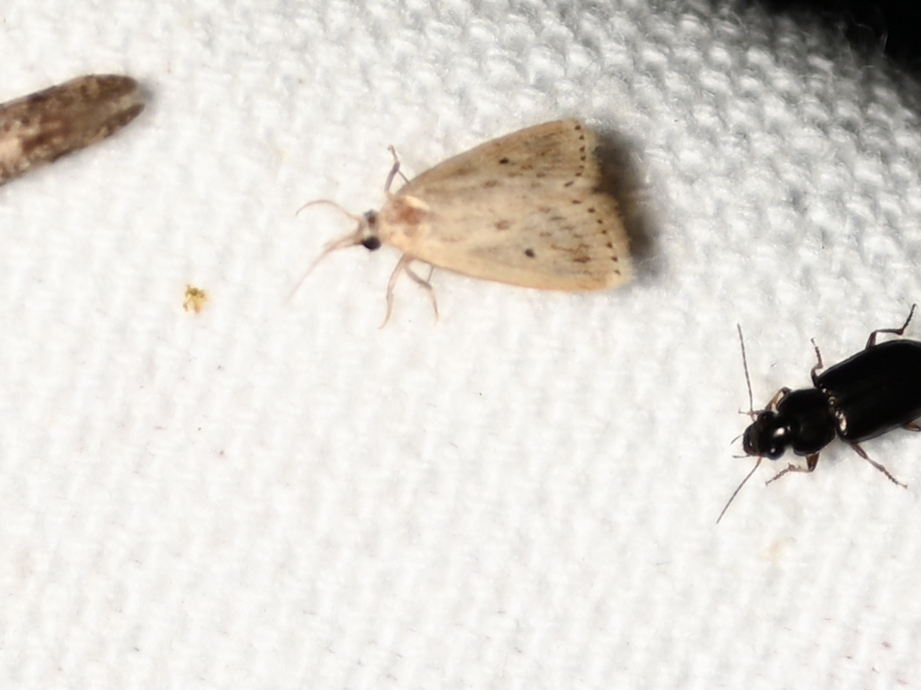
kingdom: Animalia
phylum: Arthropoda
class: Insecta
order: Lepidoptera
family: Crambidae
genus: Diatraea
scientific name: Diatraea lisetta
